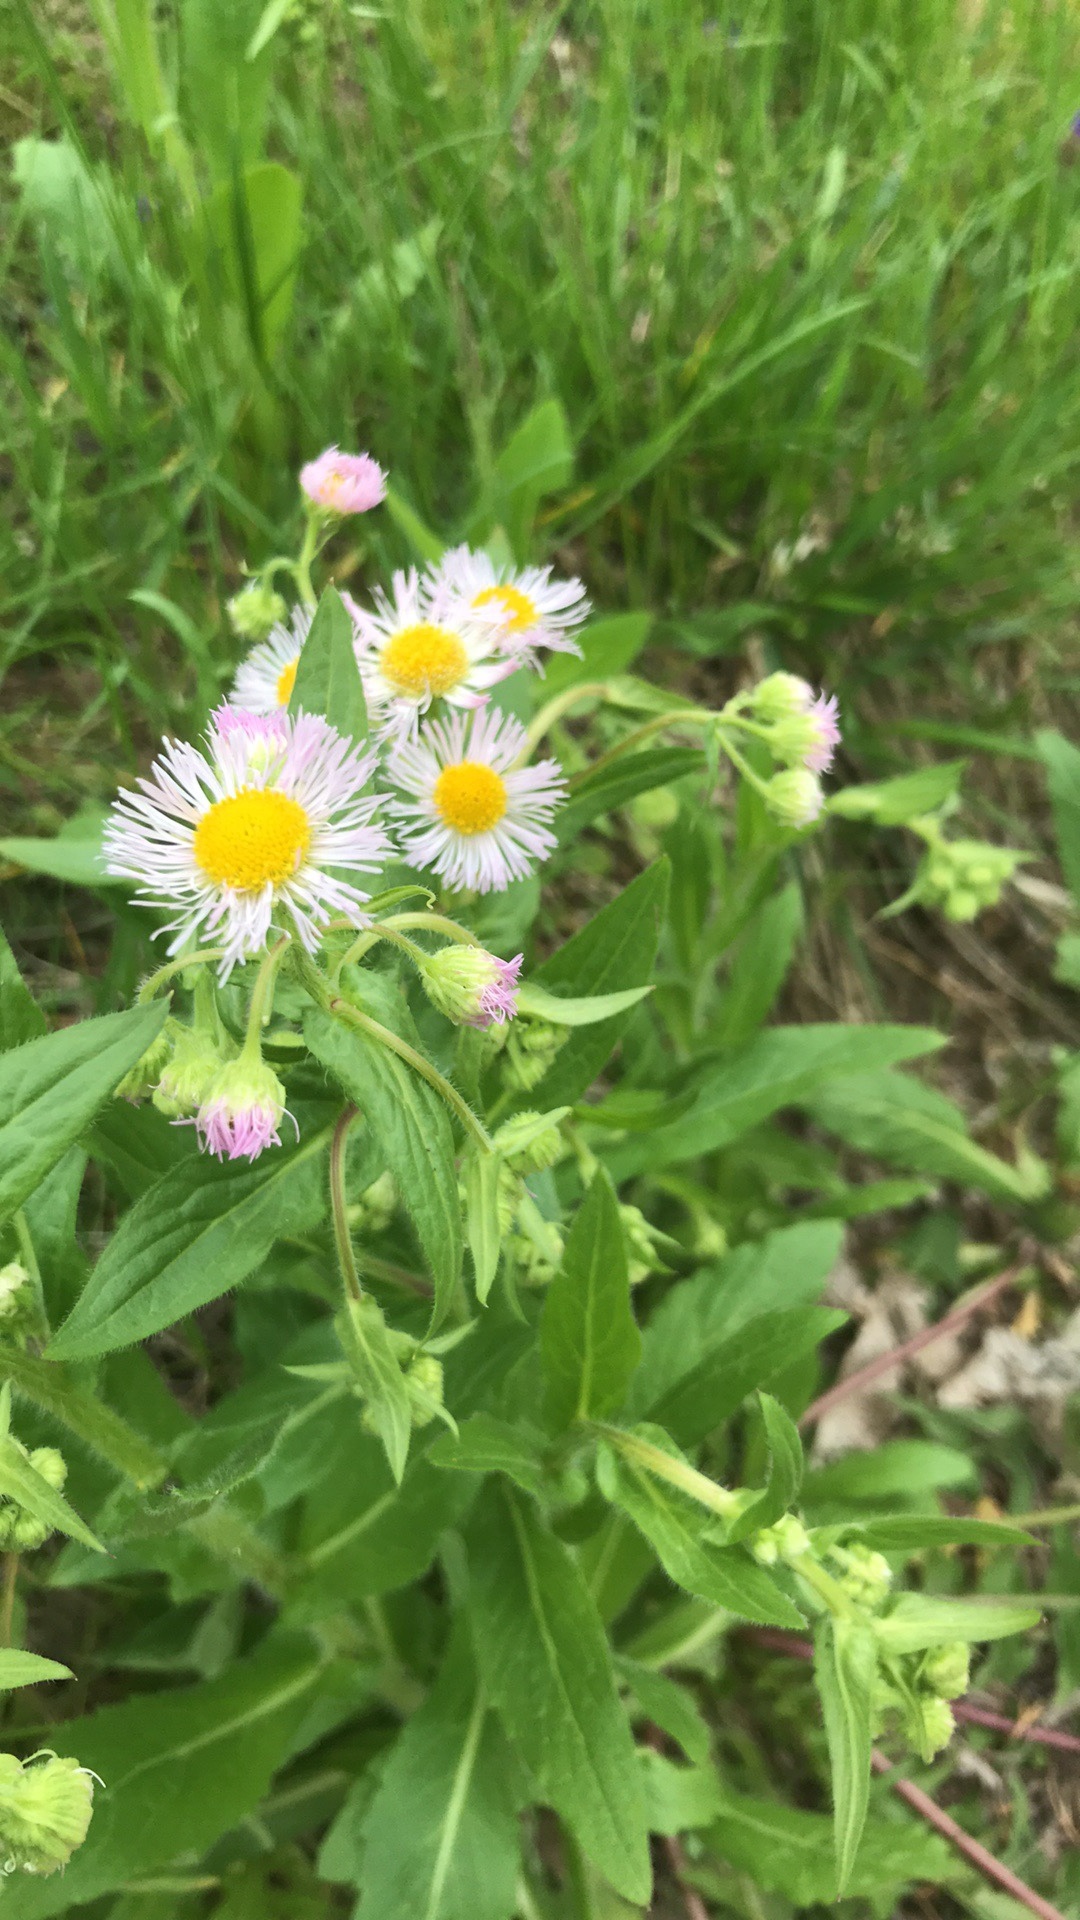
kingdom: Plantae
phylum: Tracheophyta
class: Magnoliopsida
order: Asterales
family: Asteraceae
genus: Erigeron
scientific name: Erigeron philadelphicus
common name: Robin's-plantain
